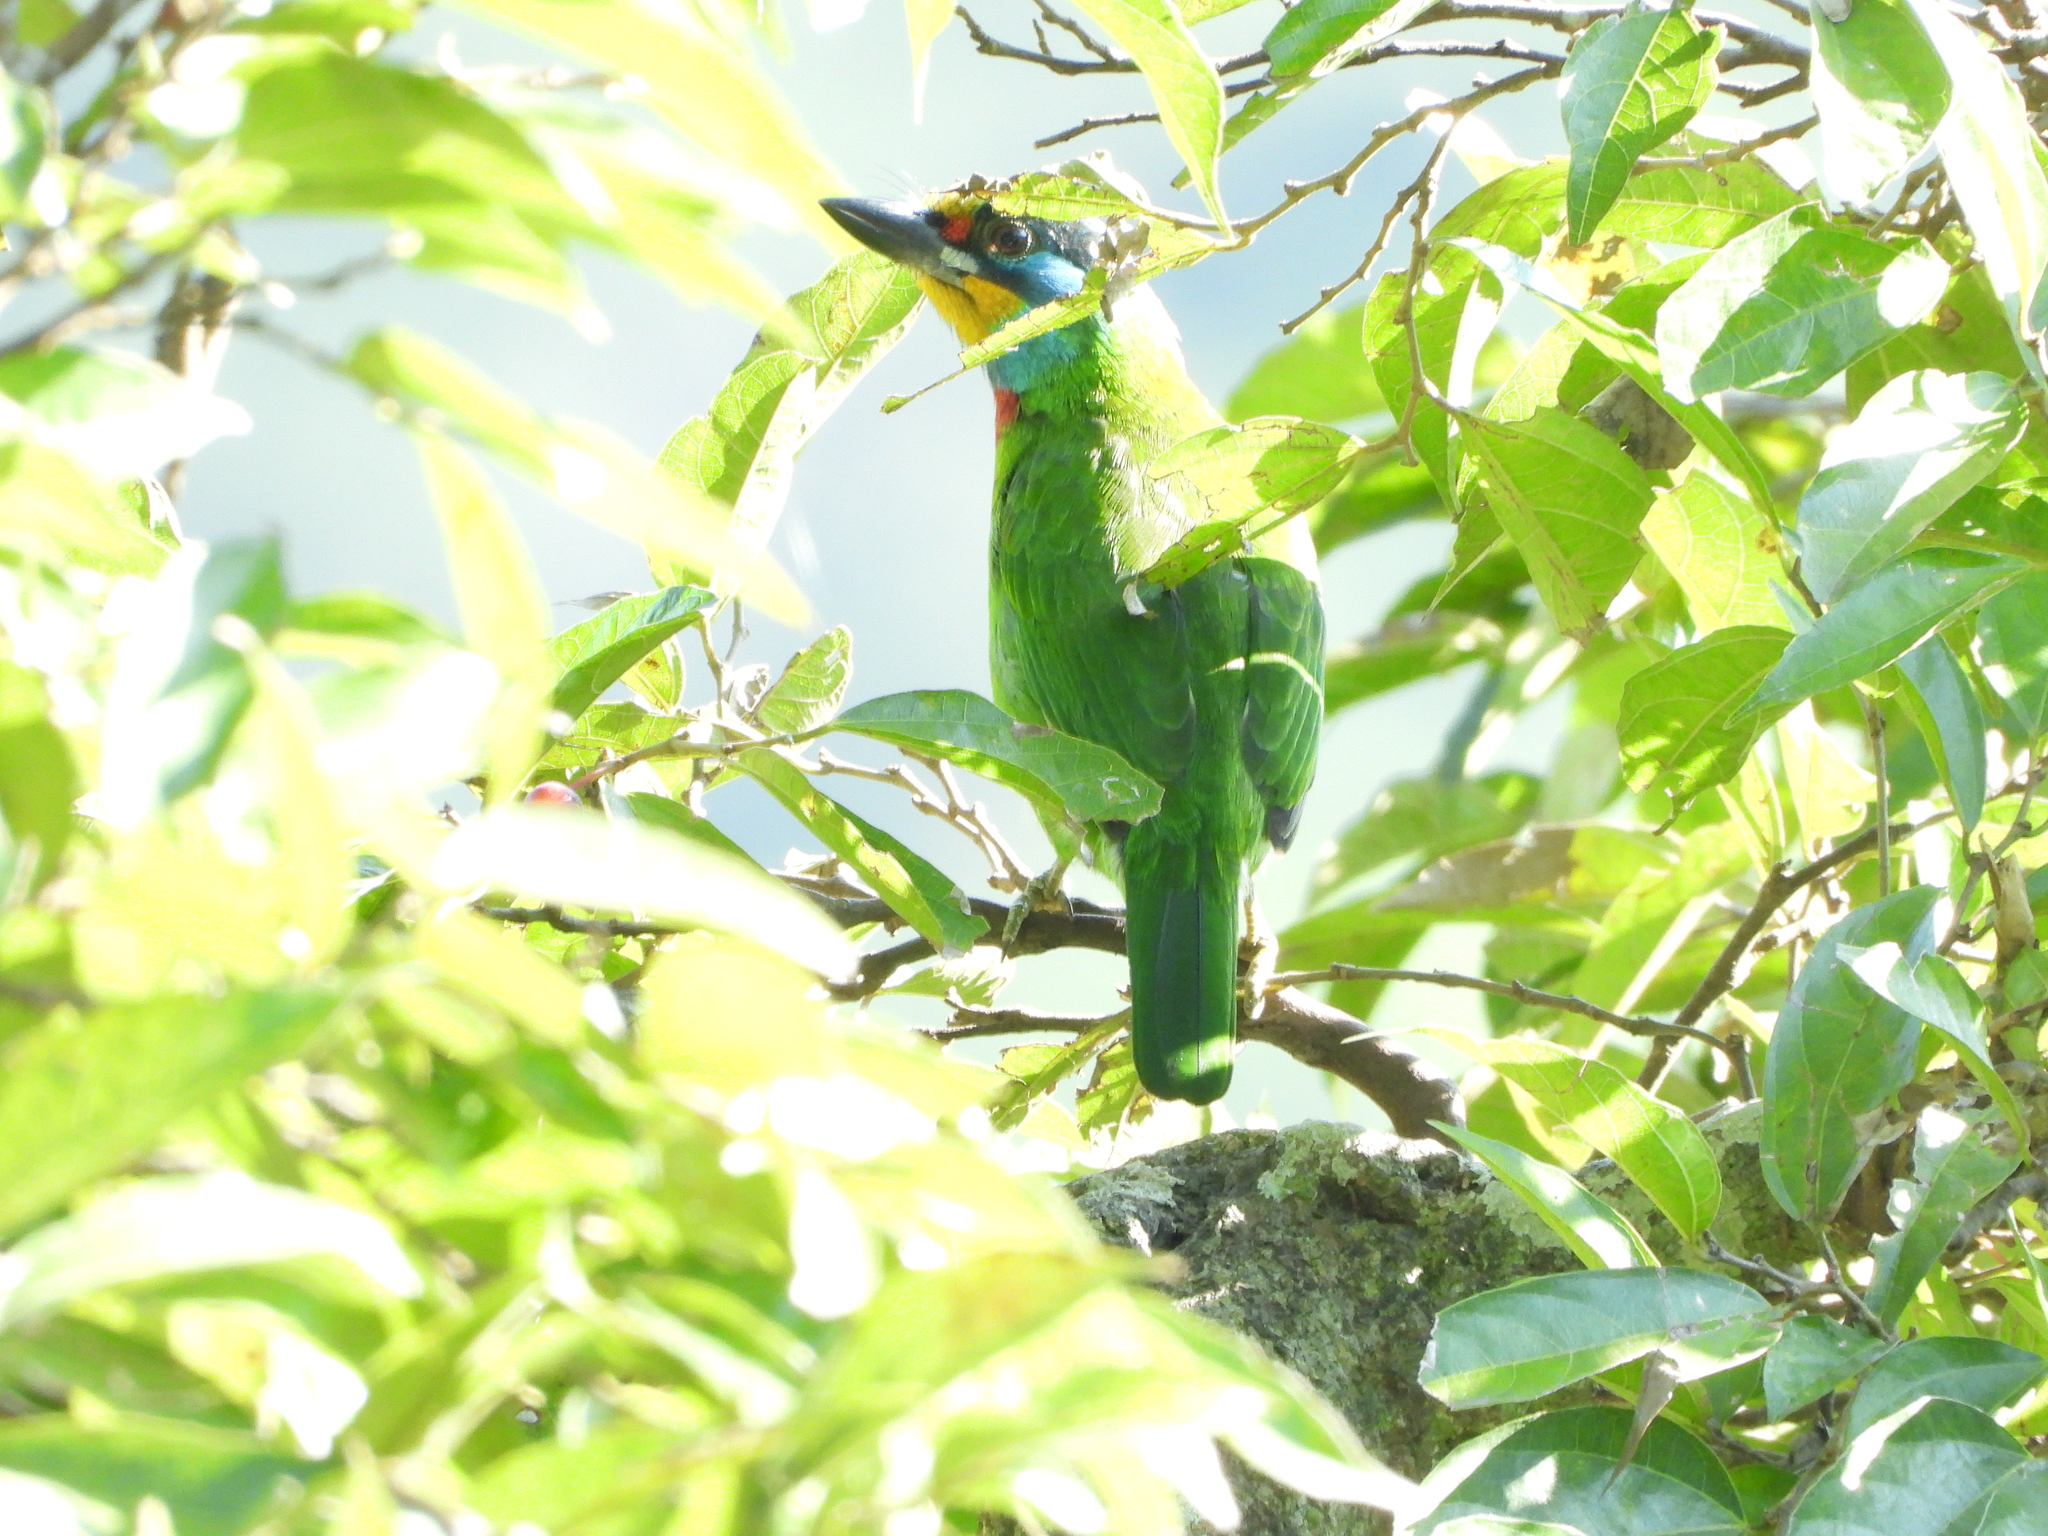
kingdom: Animalia
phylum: Chordata
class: Aves
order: Piciformes
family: Megalaimidae
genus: Psilopogon
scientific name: Psilopogon nuchalis
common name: Taiwan barbet
